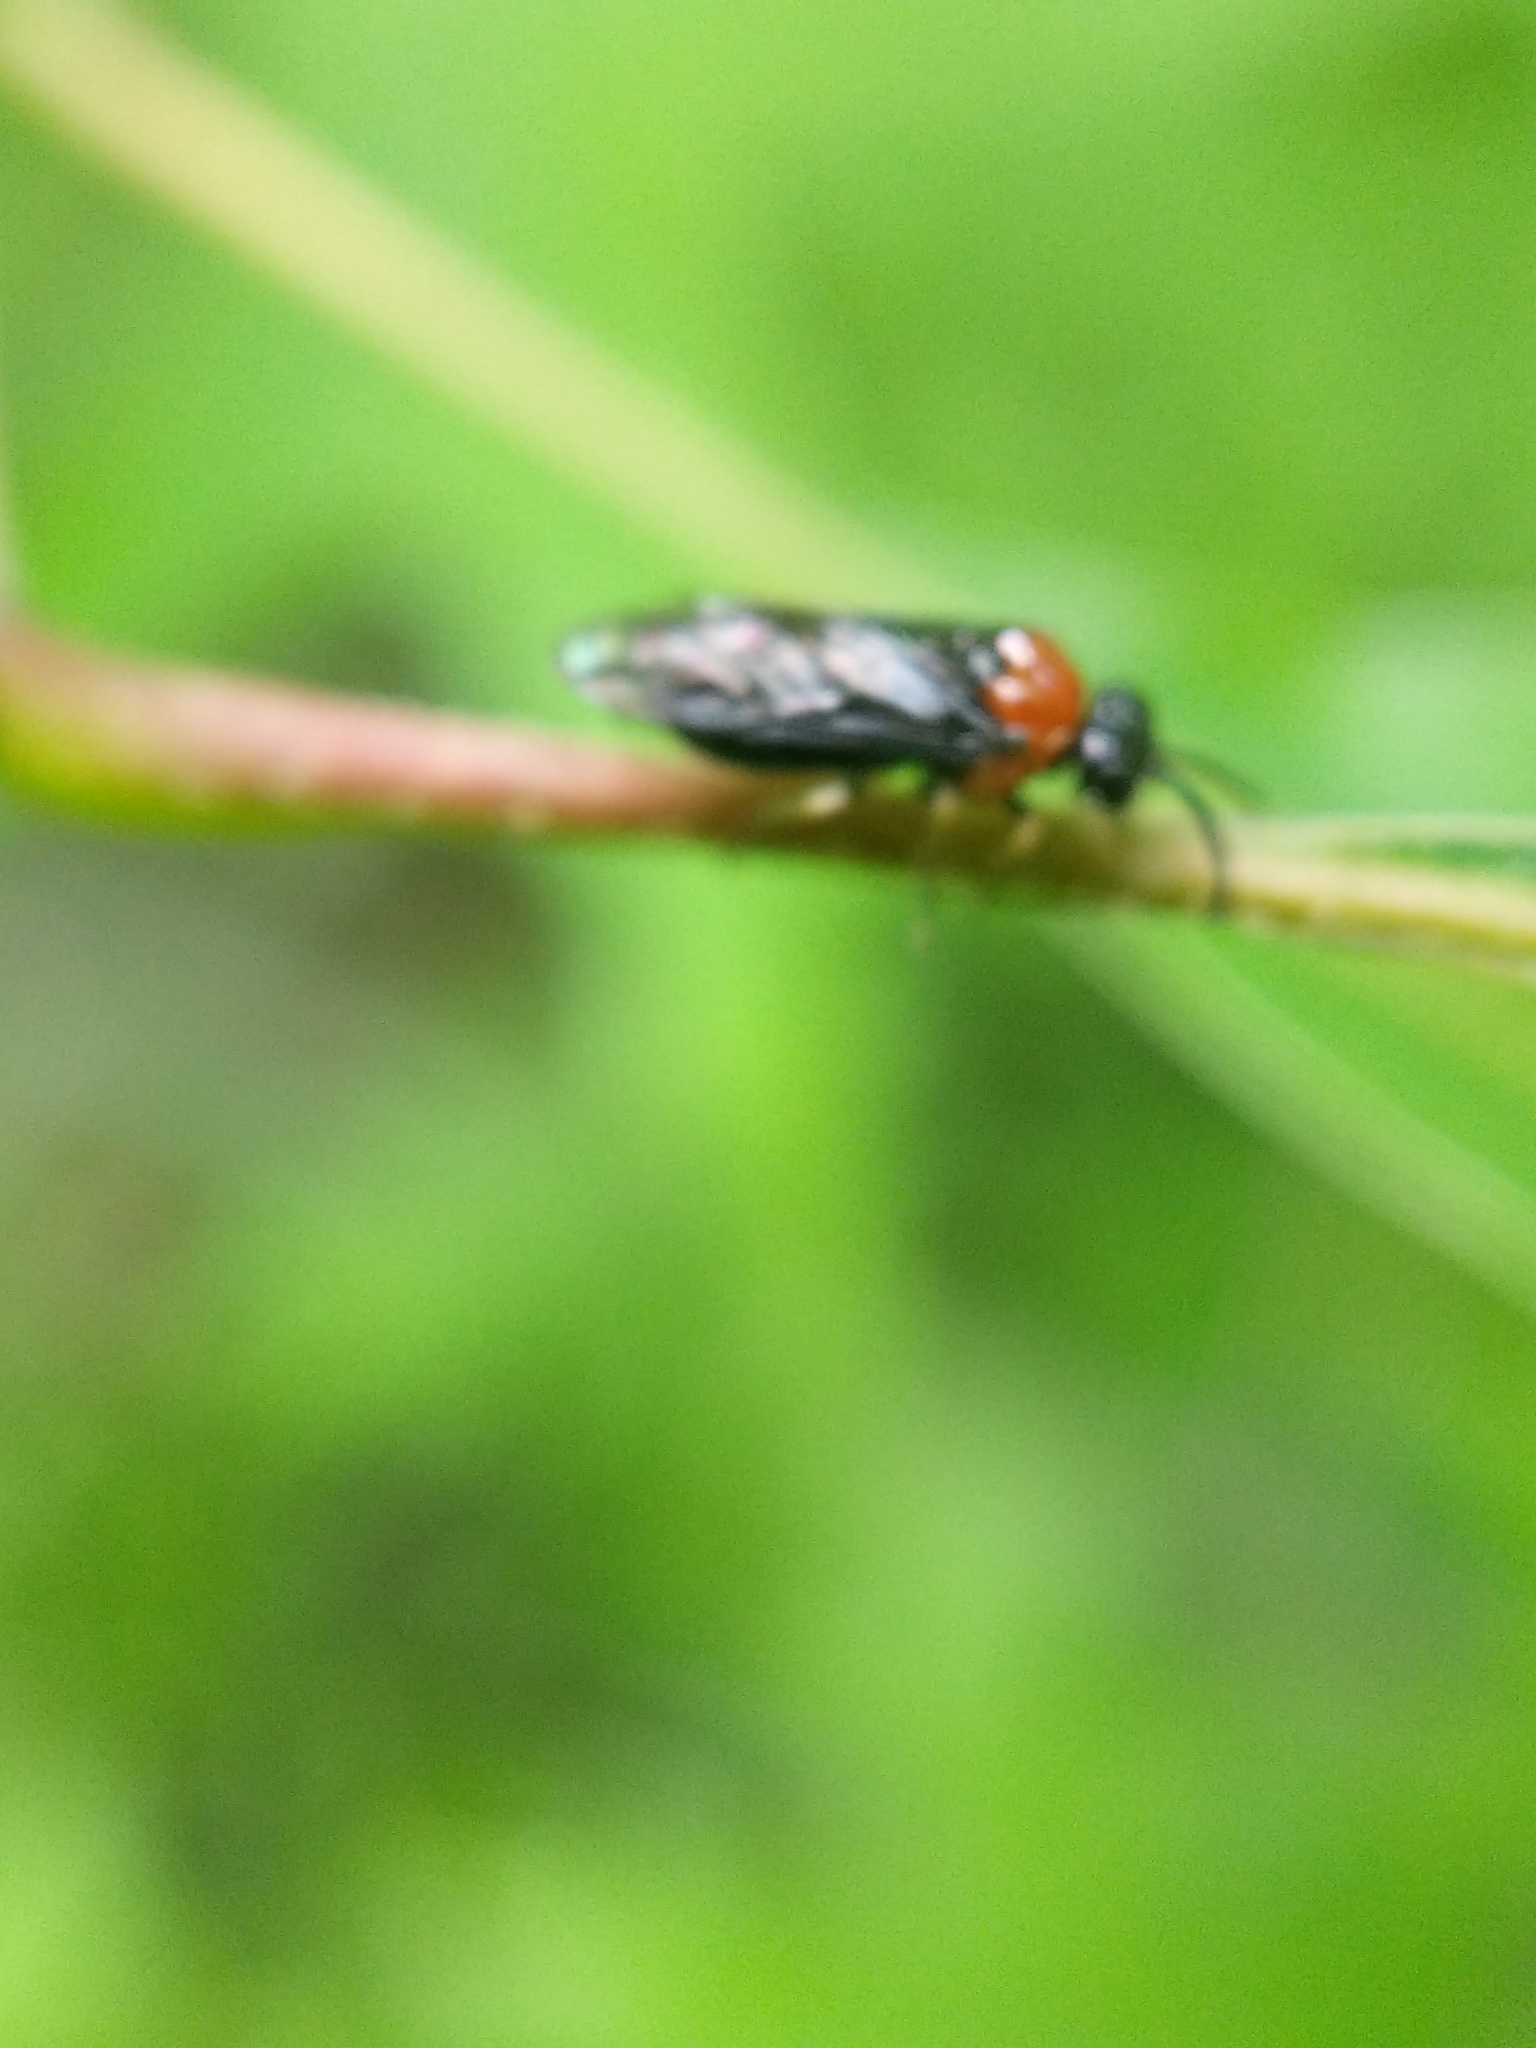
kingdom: Animalia
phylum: Arthropoda
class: Insecta
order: Hymenoptera
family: Tenthredinidae
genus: Eutomostethus
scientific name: Eutomostethus ephippium
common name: Tenthredid wasp
